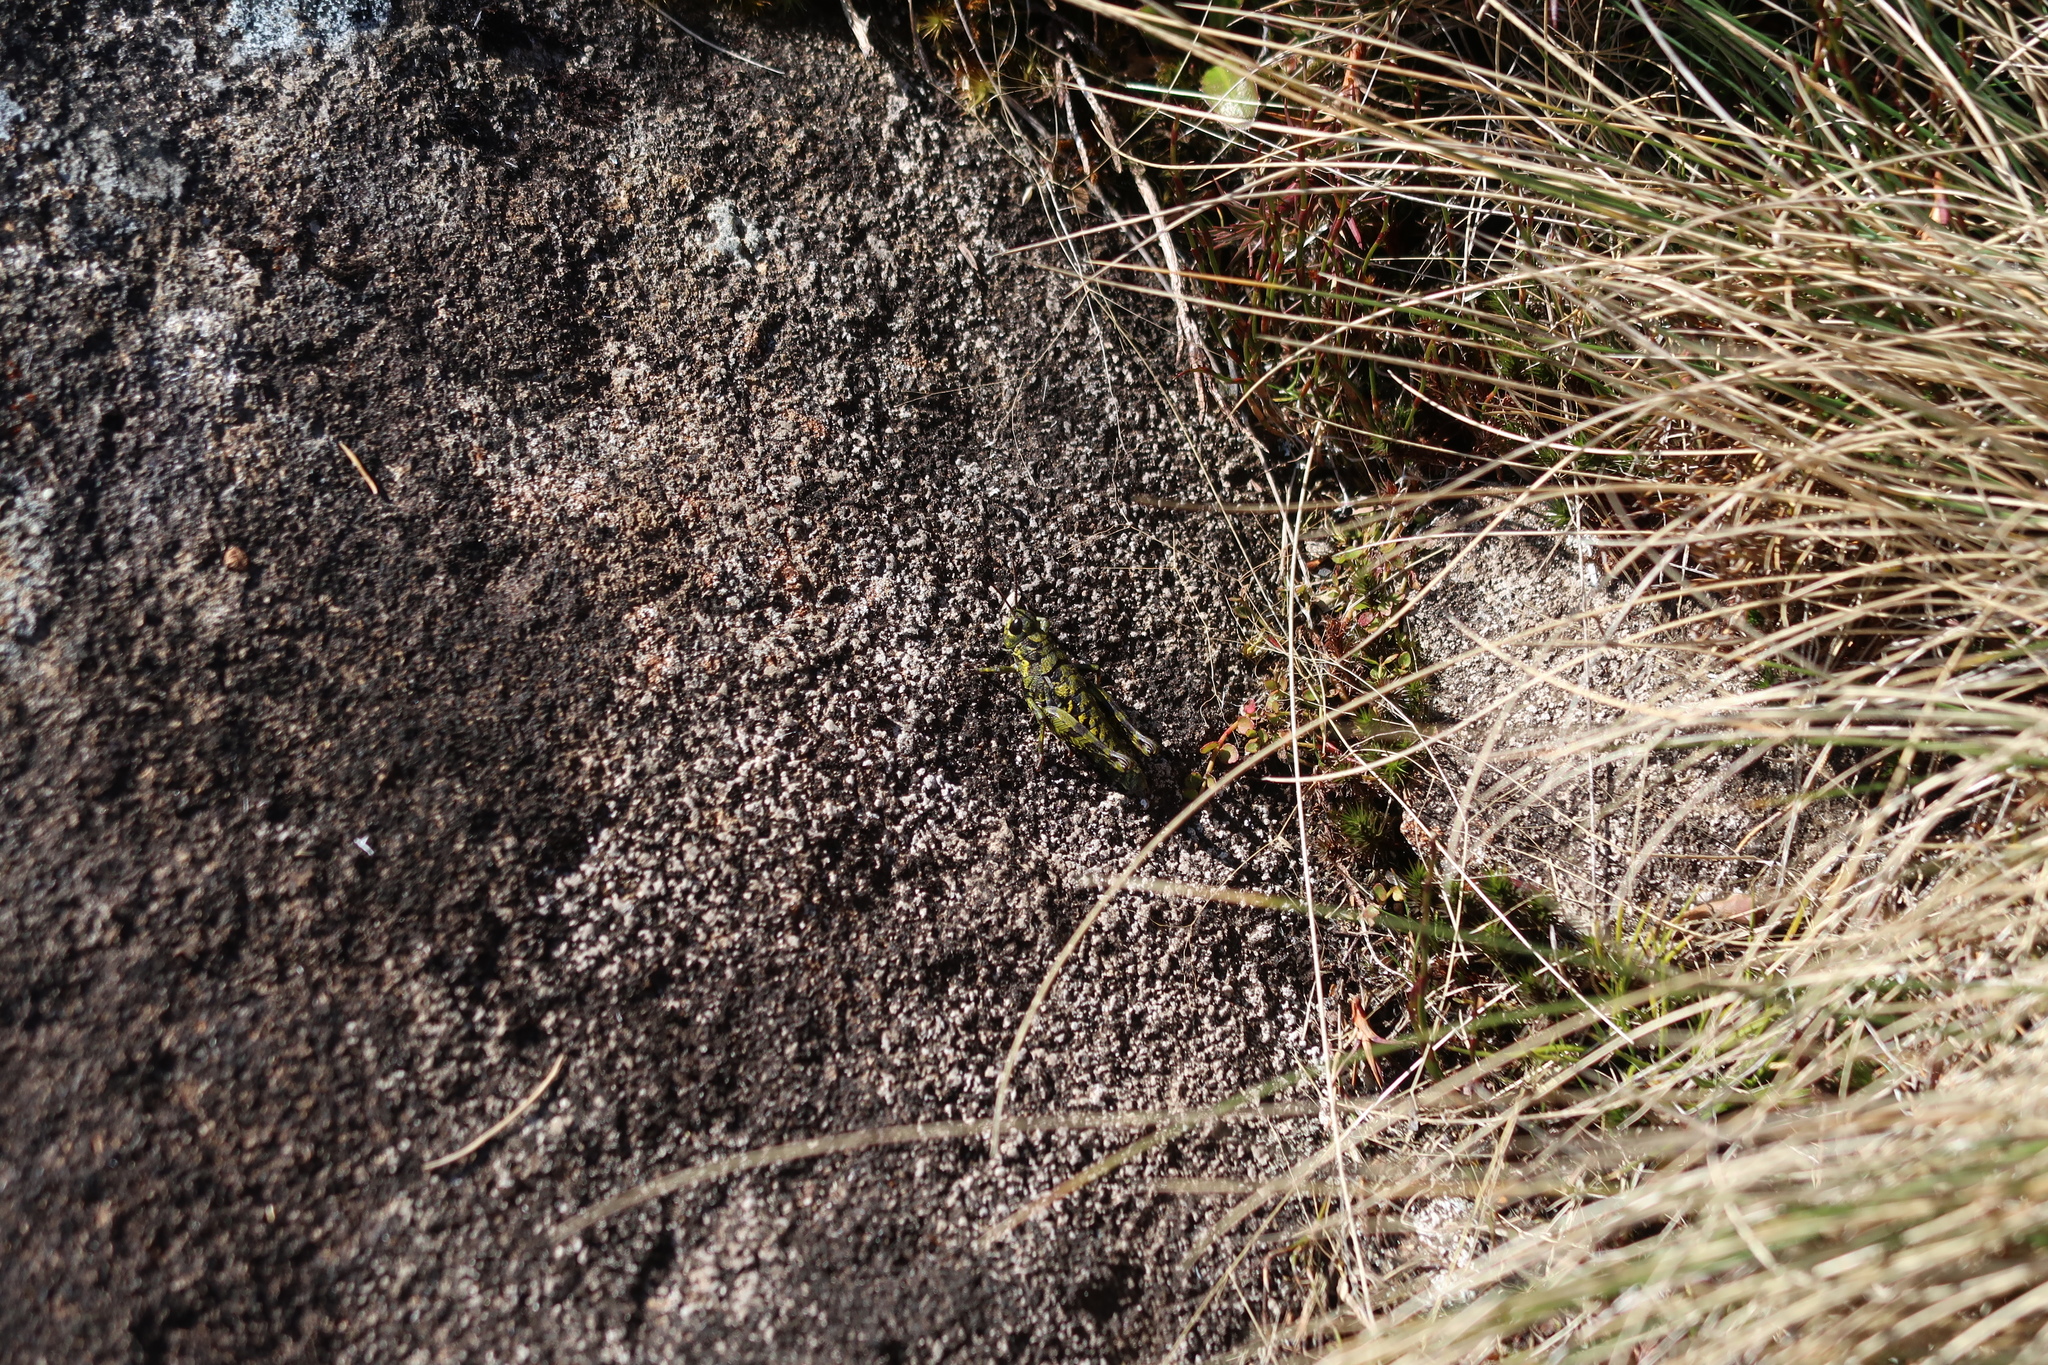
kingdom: Animalia
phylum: Arthropoda
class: Insecta
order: Orthoptera
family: Acrididae
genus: Tasmaniacris
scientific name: Tasmaniacris tasmaniensis
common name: Tasmanian grasshopper
